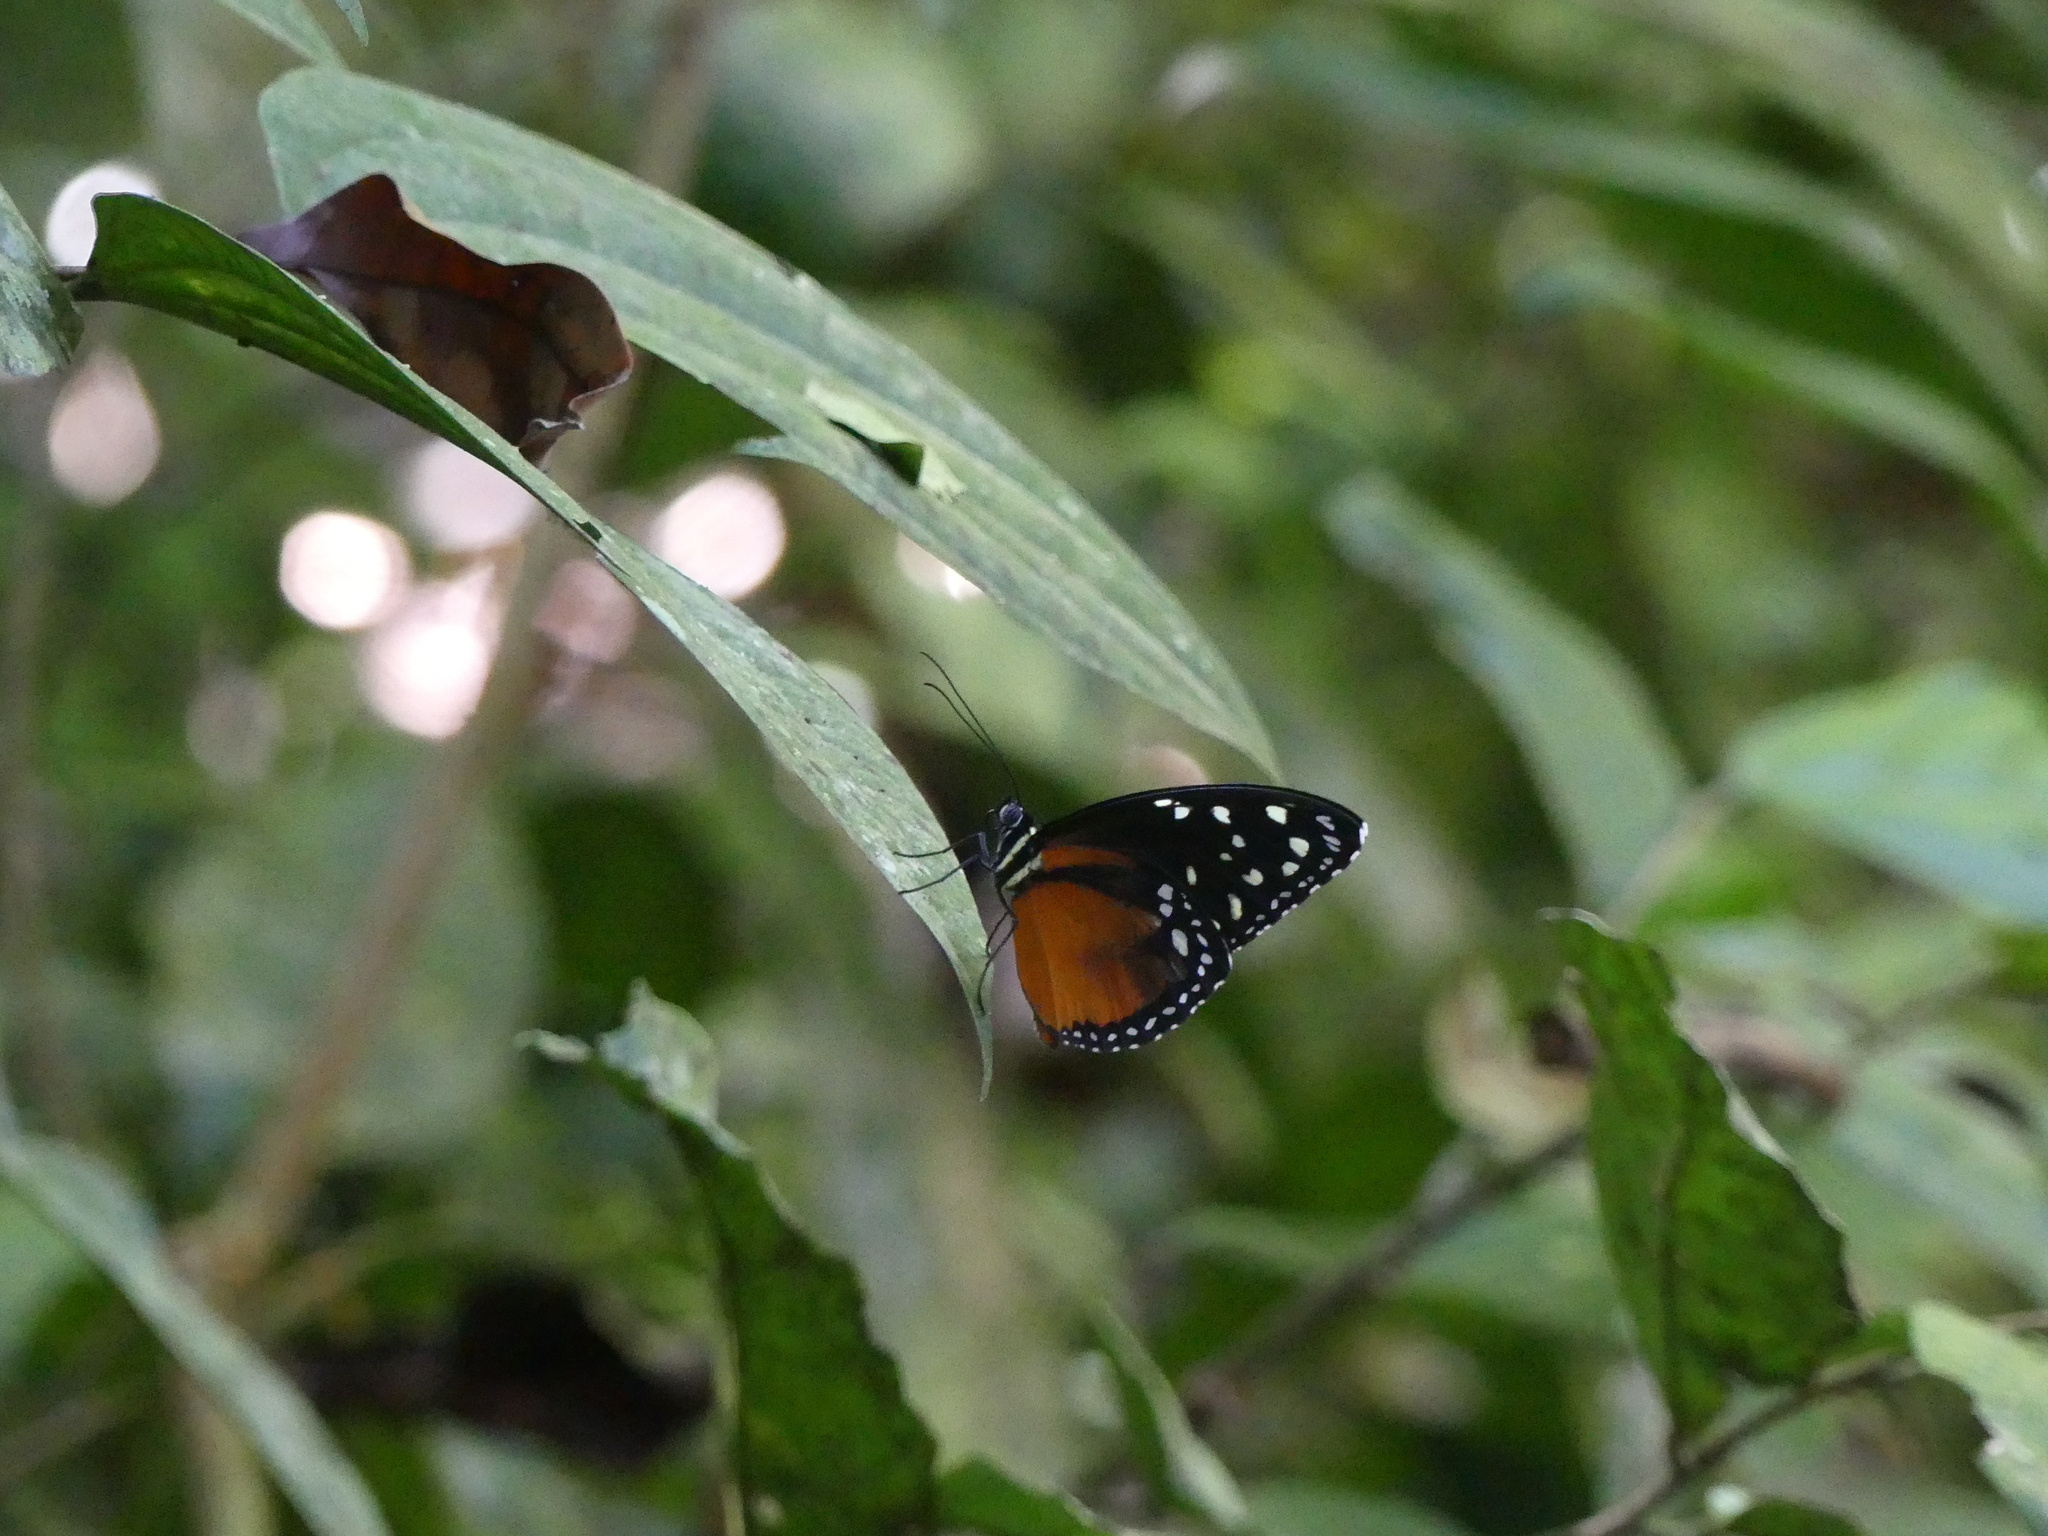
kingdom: Animalia
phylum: Arthropoda
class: Insecta
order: Lepidoptera
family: Nymphalidae
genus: Tithorea
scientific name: Tithorea tarricina
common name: Cream-spotted tigerwing
